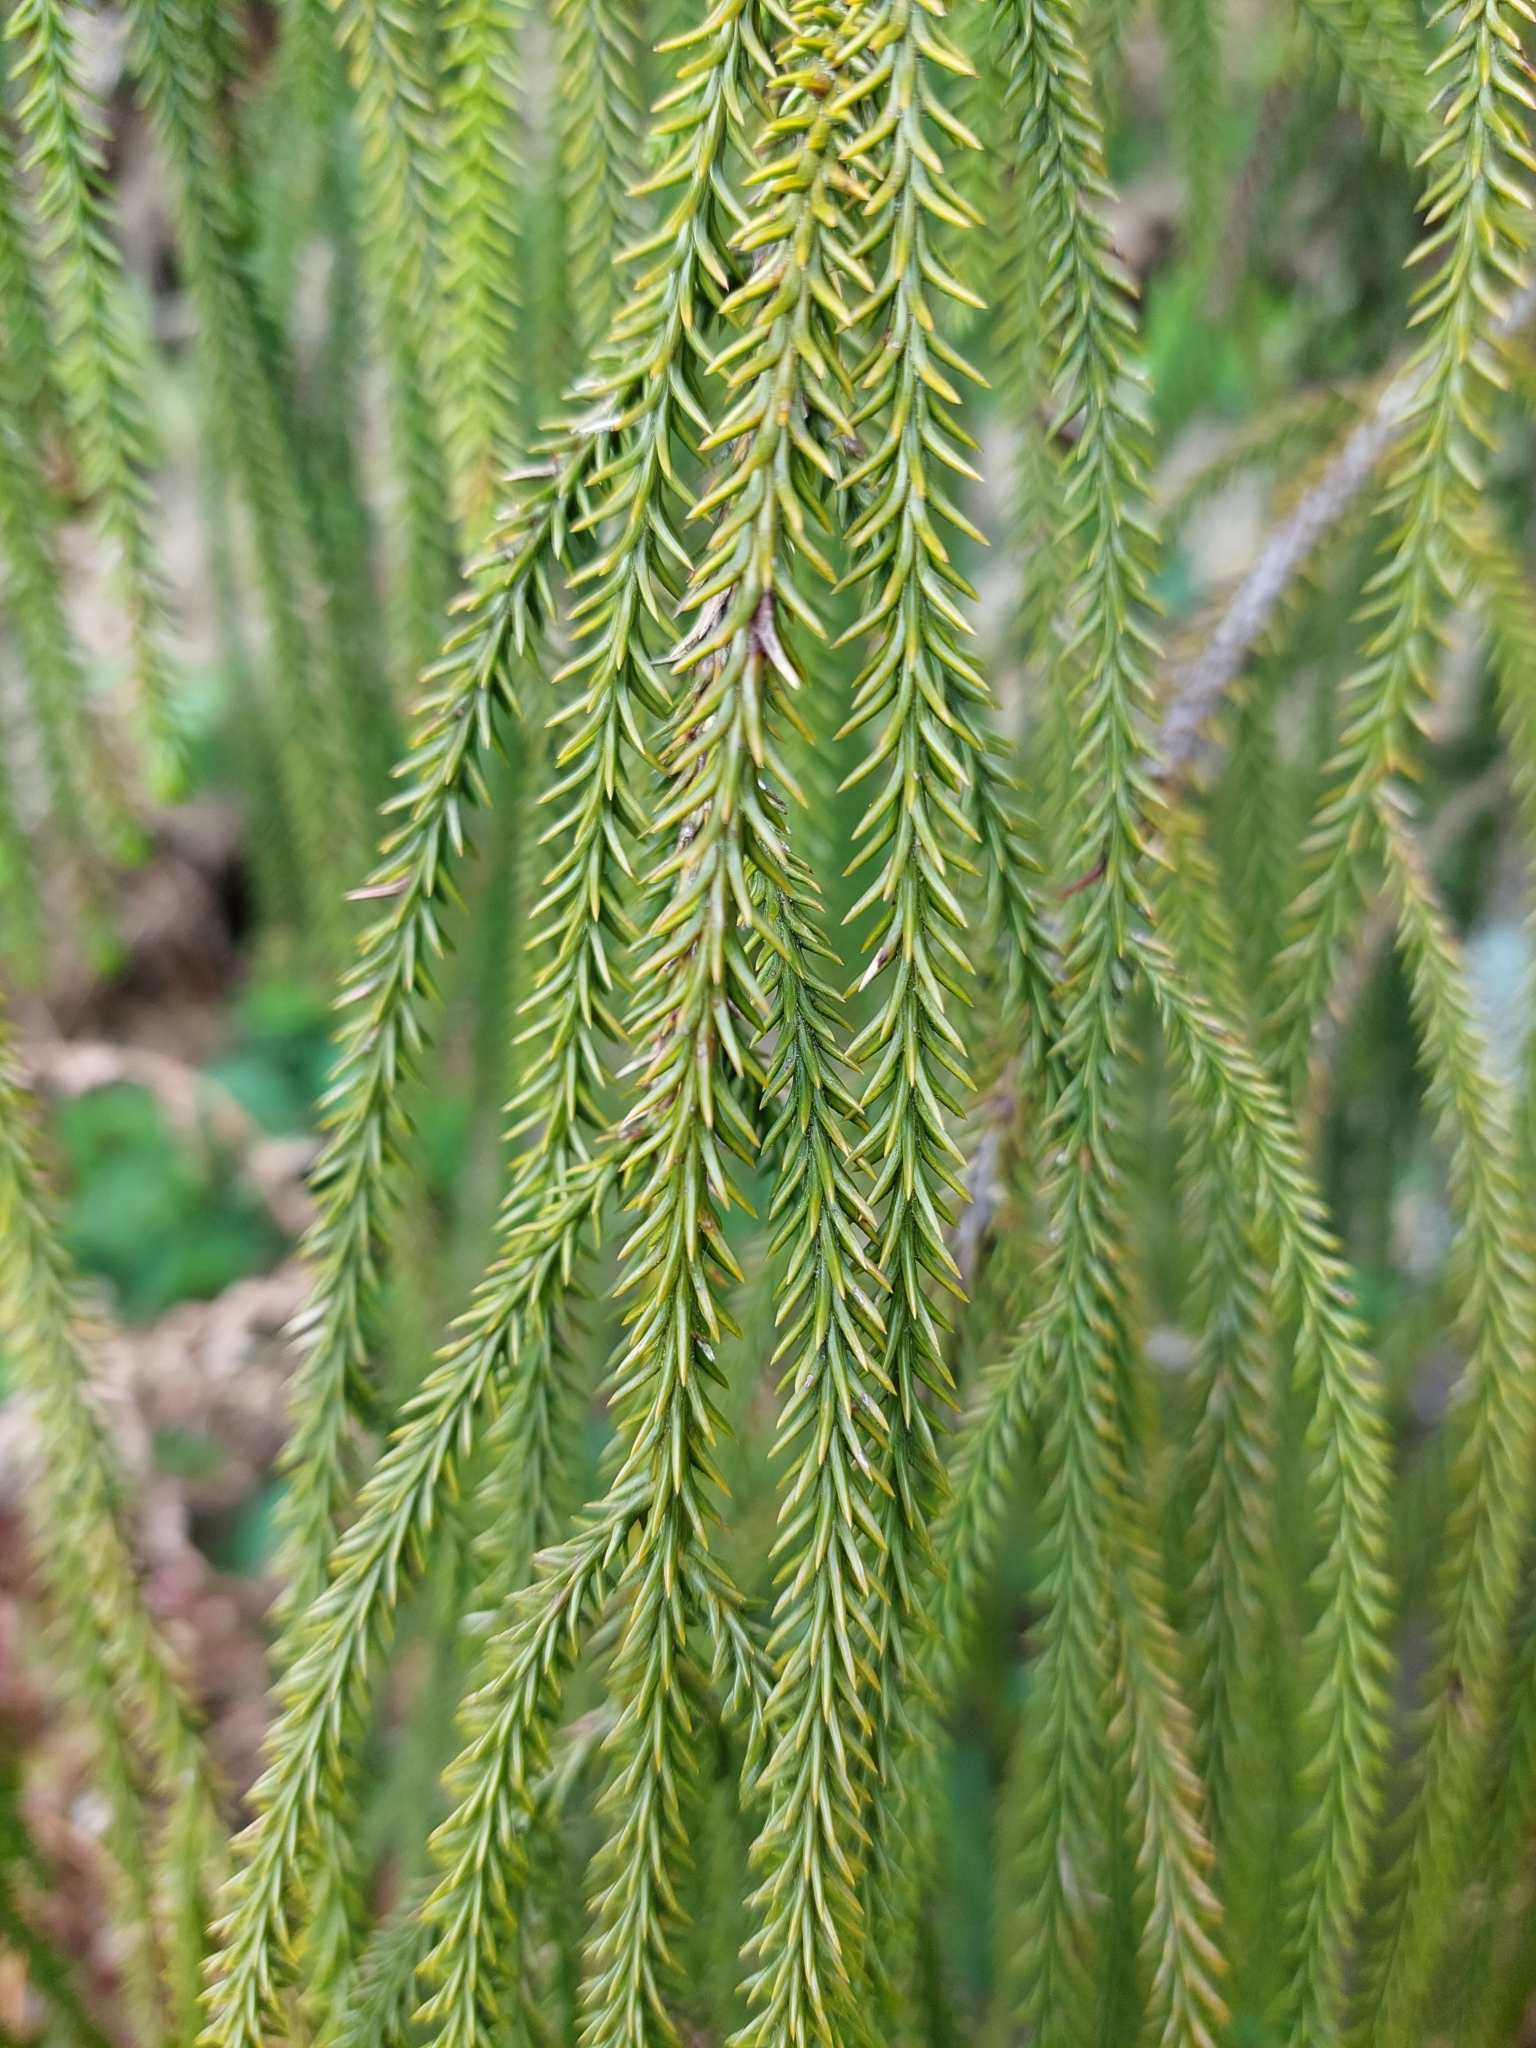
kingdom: Plantae
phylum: Tracheophyta
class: Pinopsida
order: Pinales
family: Podocarpaceae
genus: Dacrydium
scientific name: Dacrydium cupressinum
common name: Red pine
